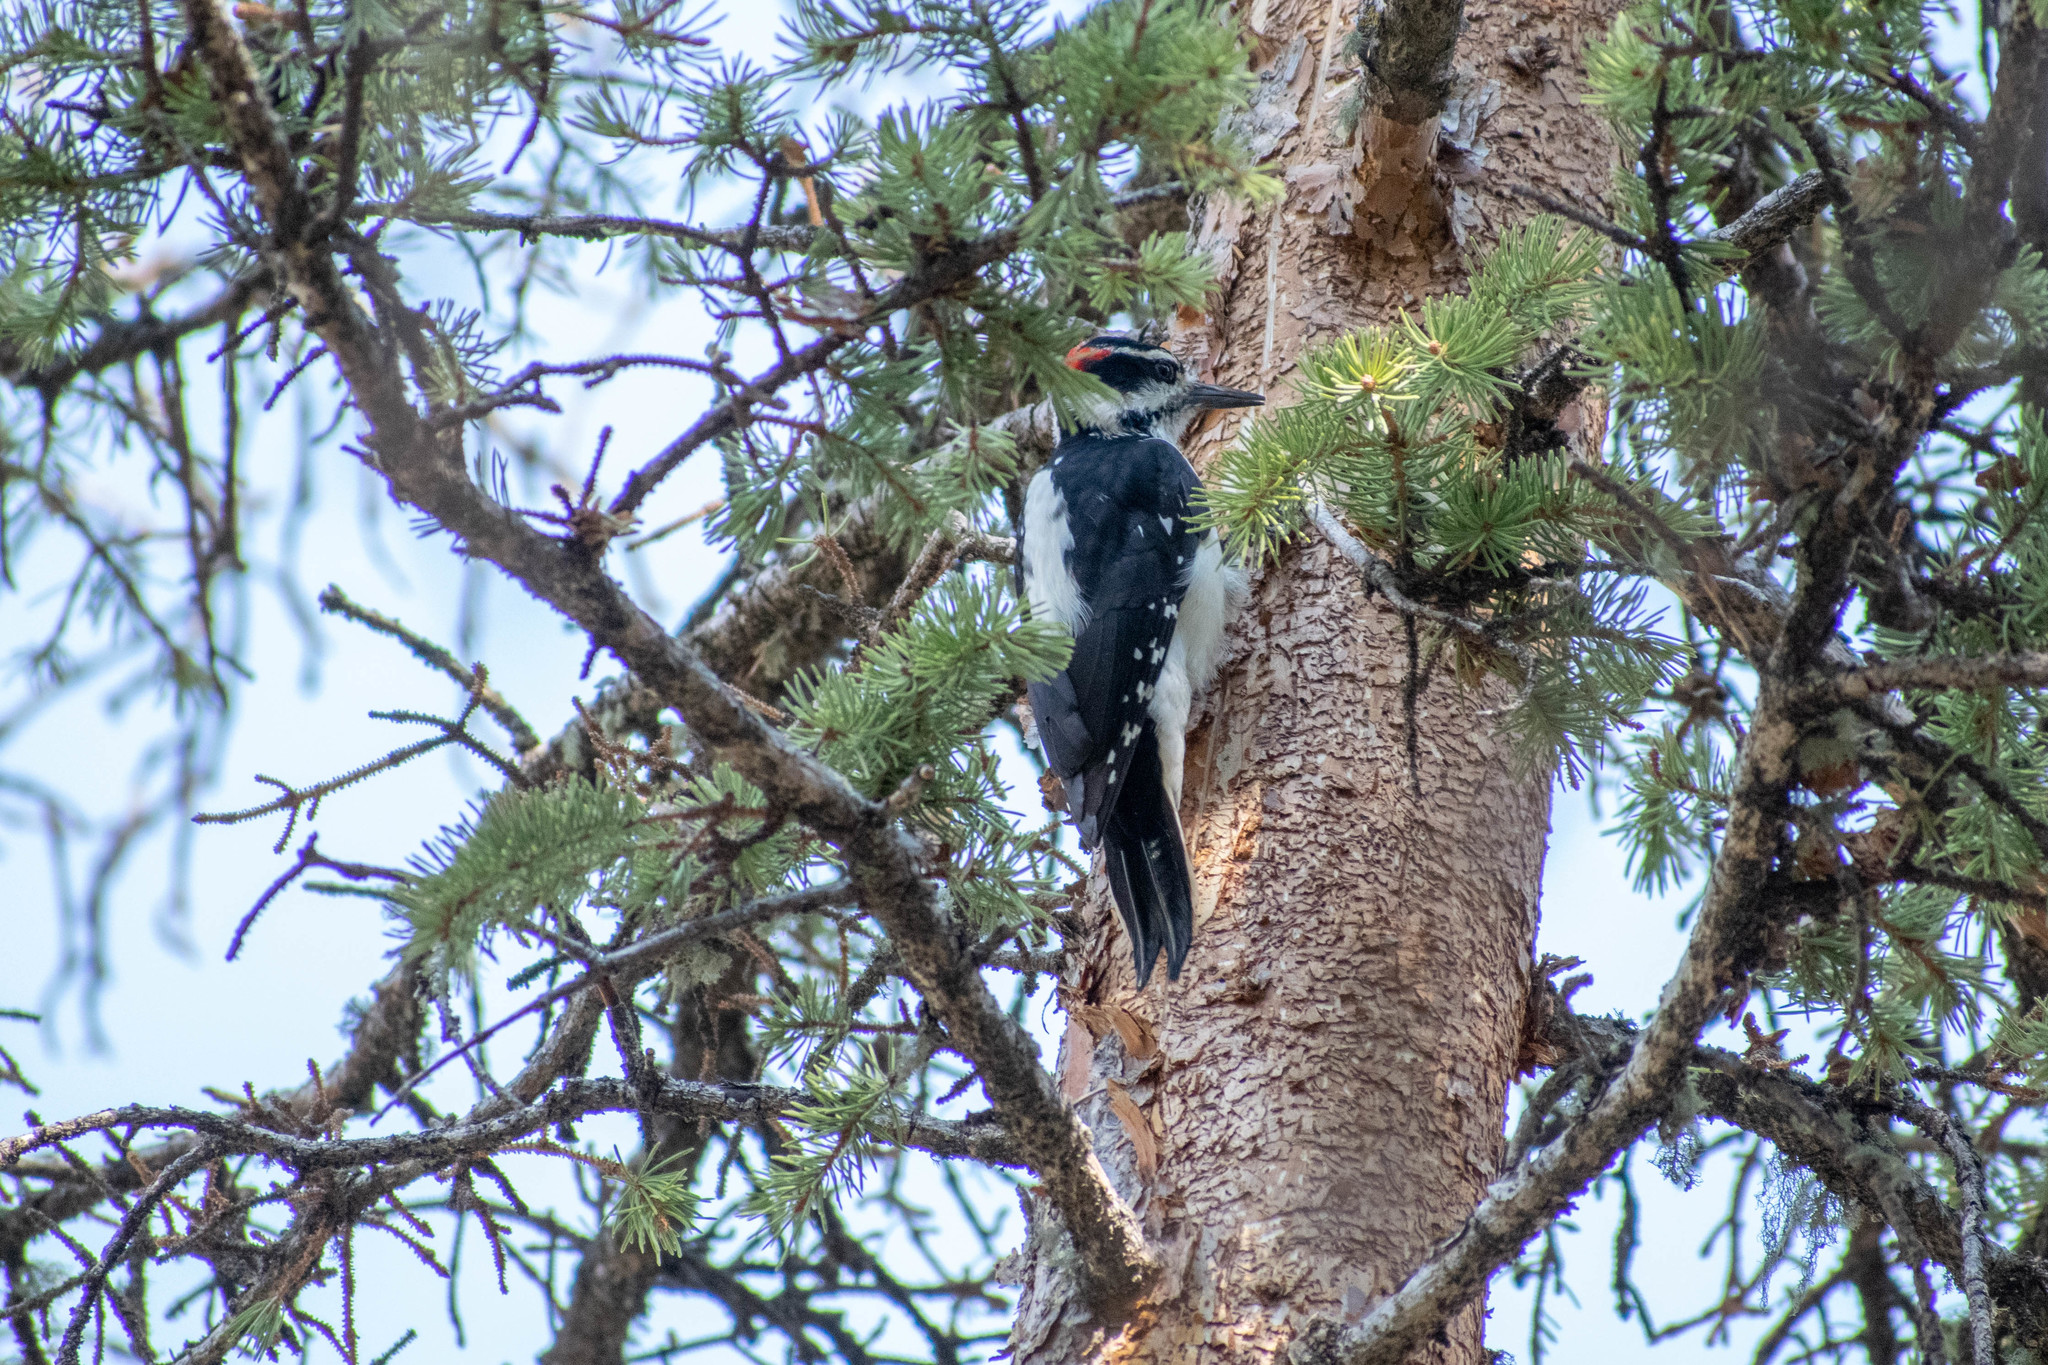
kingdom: Animalia
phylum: Chordata
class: Aves
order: Piciformes
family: Picidae
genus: Leuconotopicus
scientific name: Leuconotopicus villosus
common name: Hairy woodpecker
